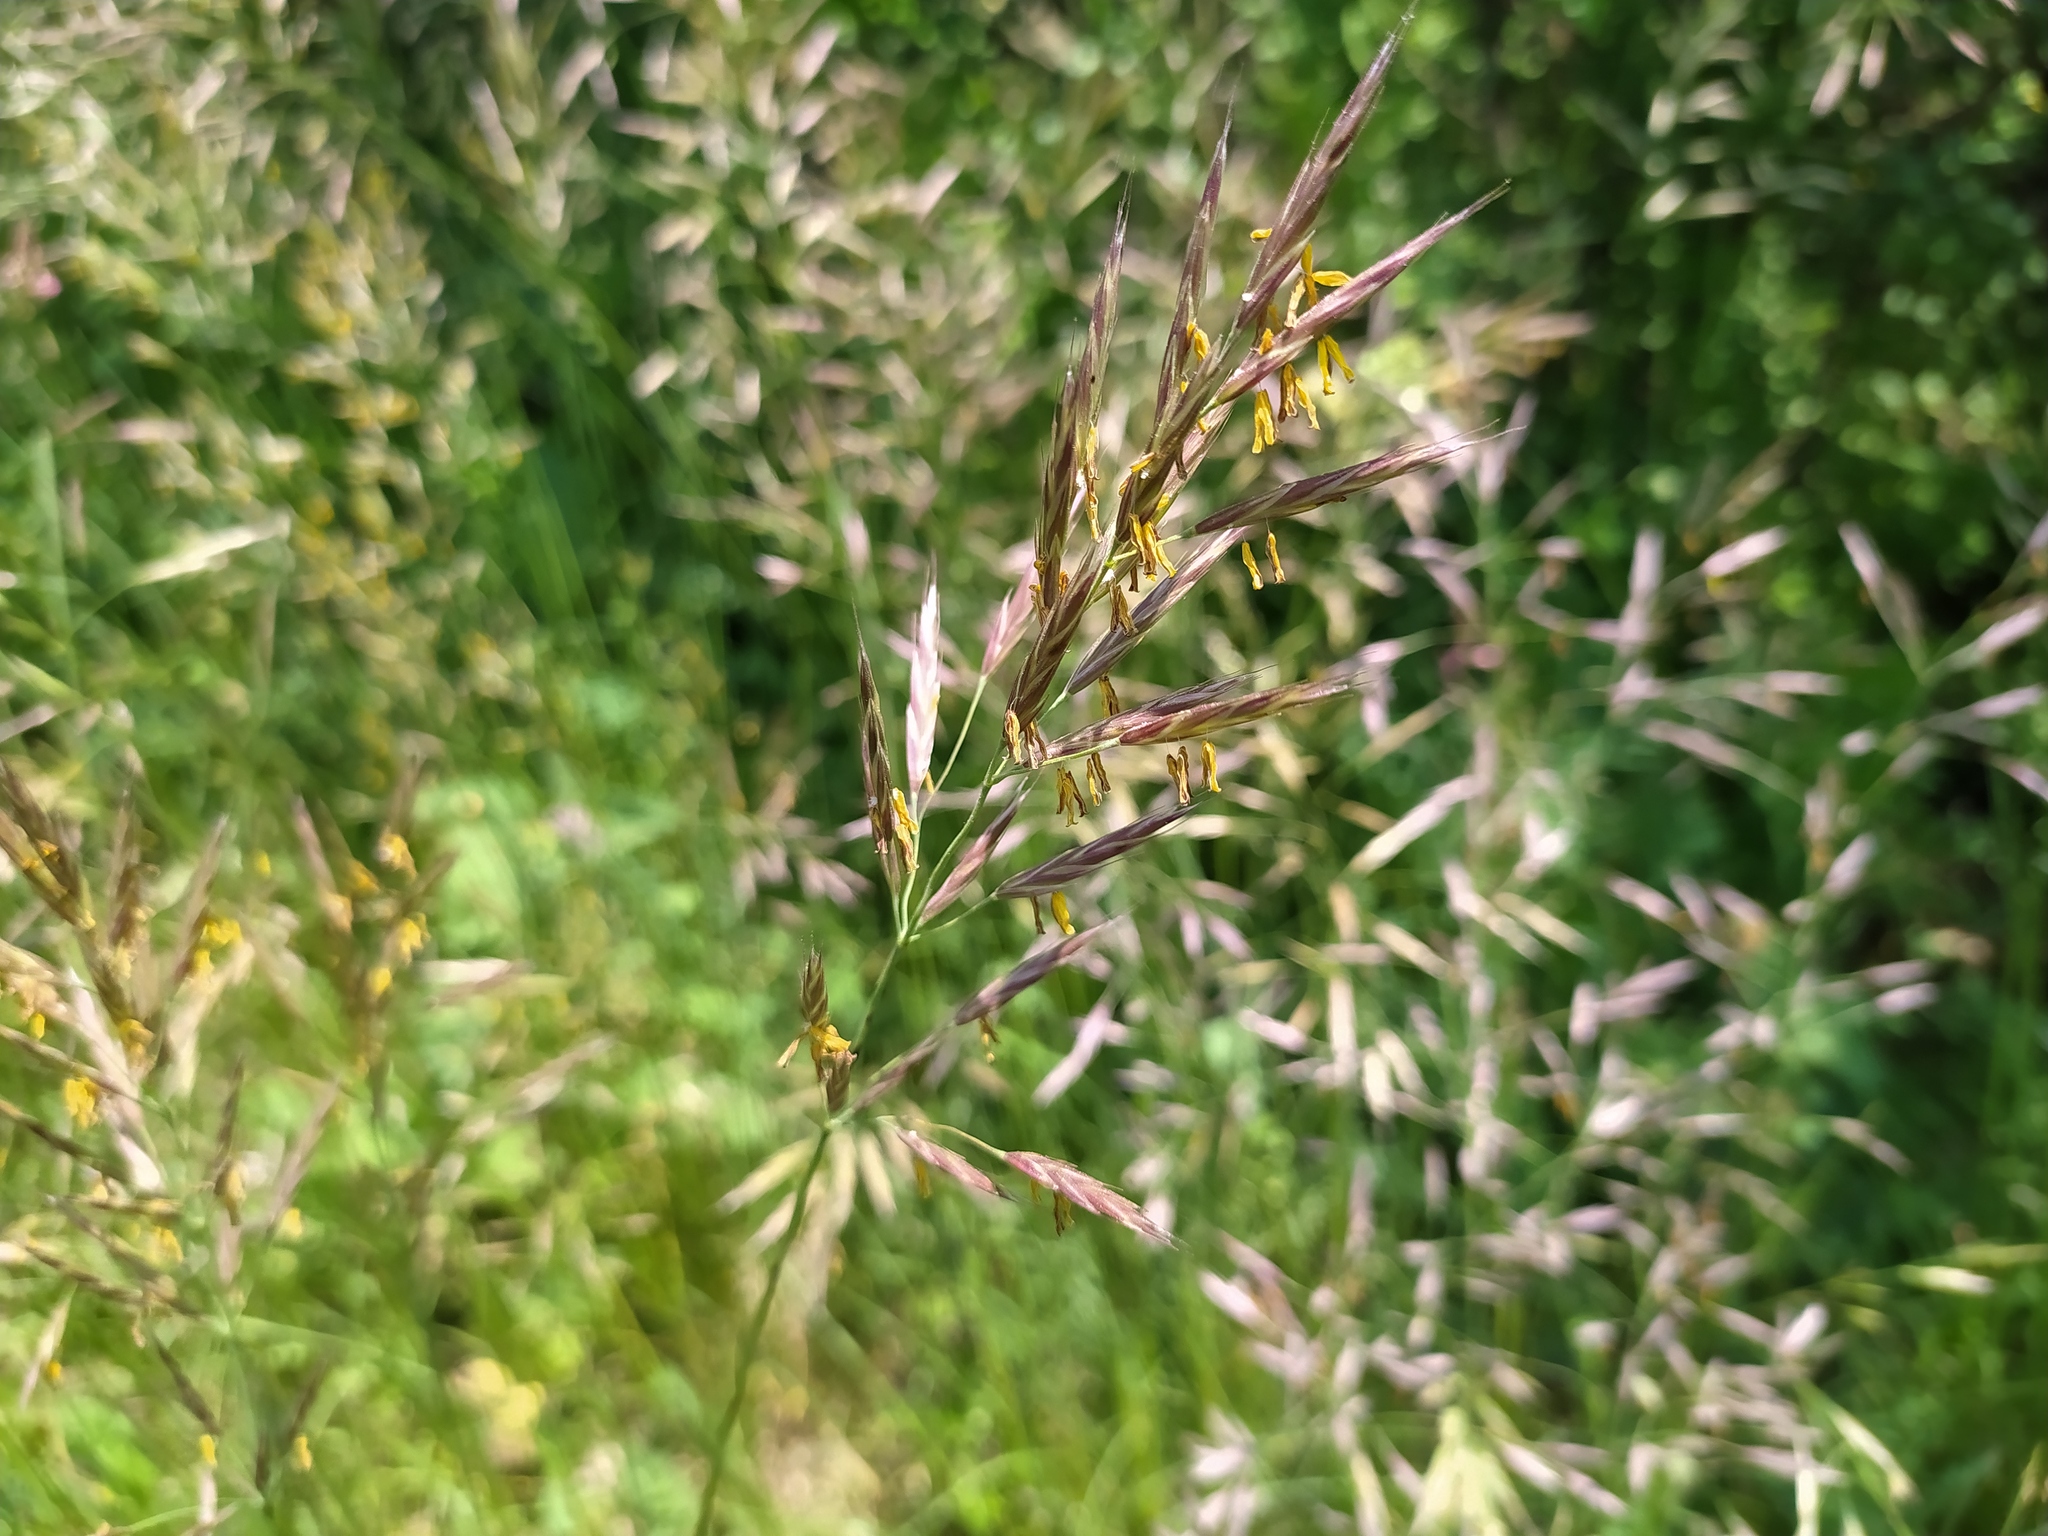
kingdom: Plantae
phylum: Tracheophyta
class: Liliopsida
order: Poales
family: Poaceae
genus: Bromus
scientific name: Bromus erectus
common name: Erect brome
